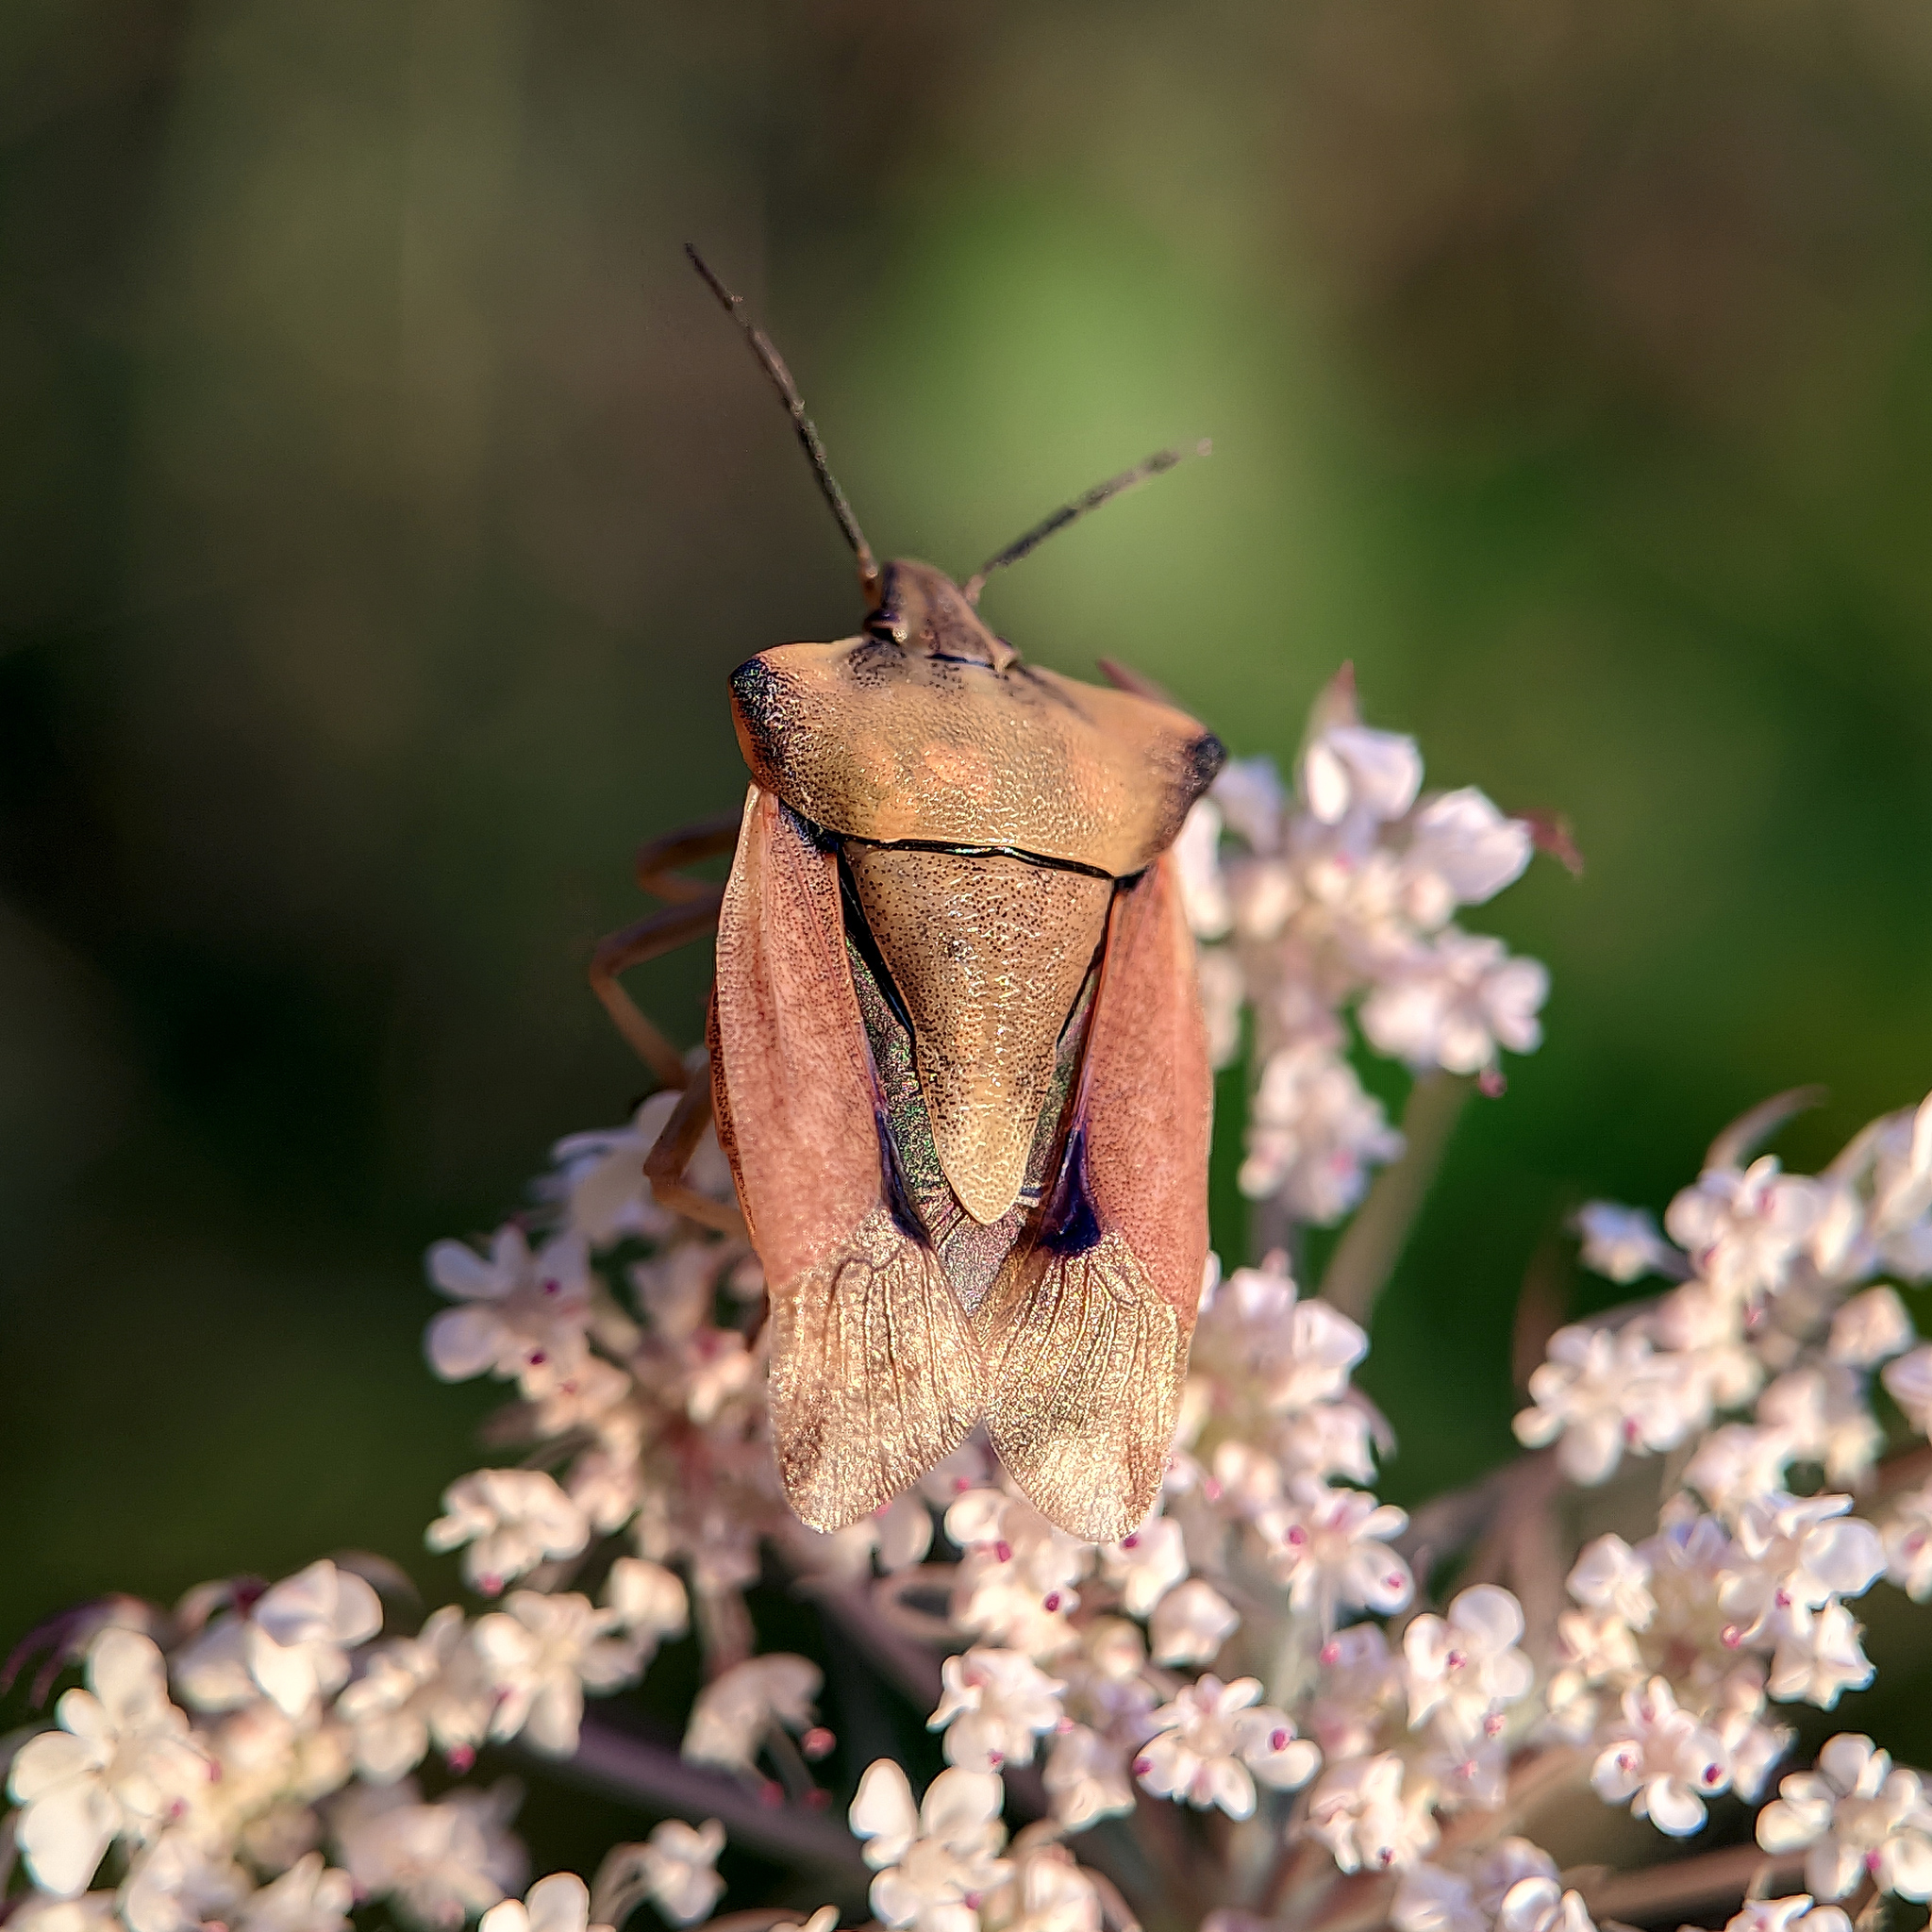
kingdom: Animalia
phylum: Arthropoda
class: Insecta
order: Hemiptera
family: Pentatomidae
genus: Carpocoris
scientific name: Carpocoris fuscispinus
